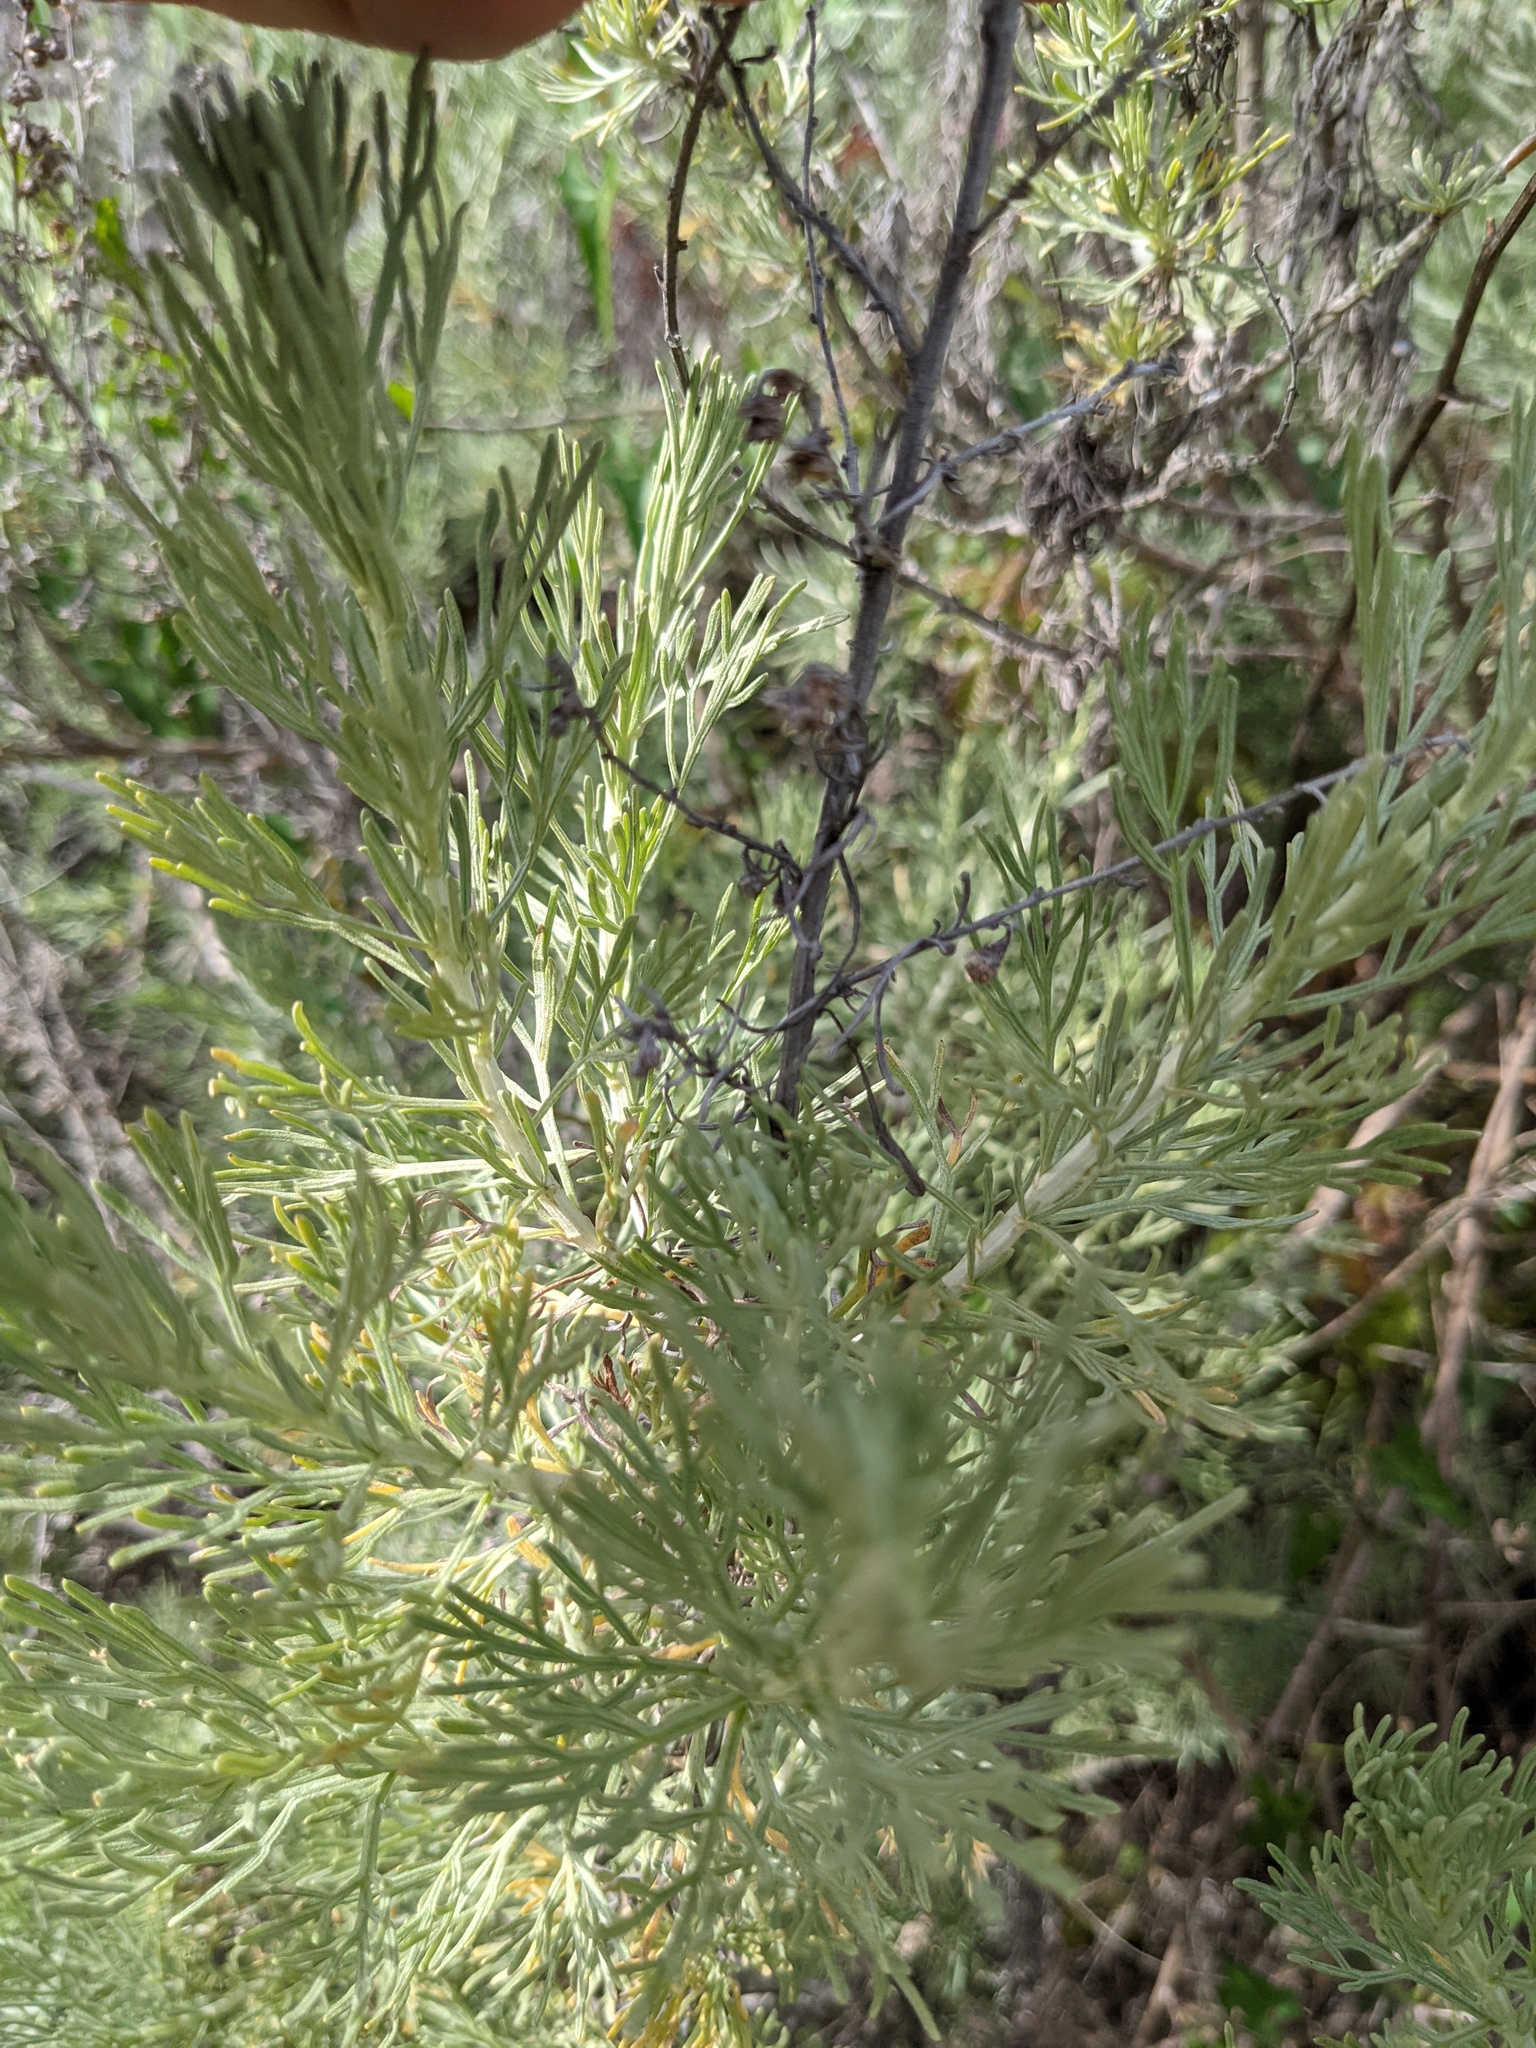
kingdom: Plantae
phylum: Tracheophyta
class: Magnoliopsida
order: Asterales
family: Asteraceae
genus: Artemisia
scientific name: Artemisia californica
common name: California sagebrush
